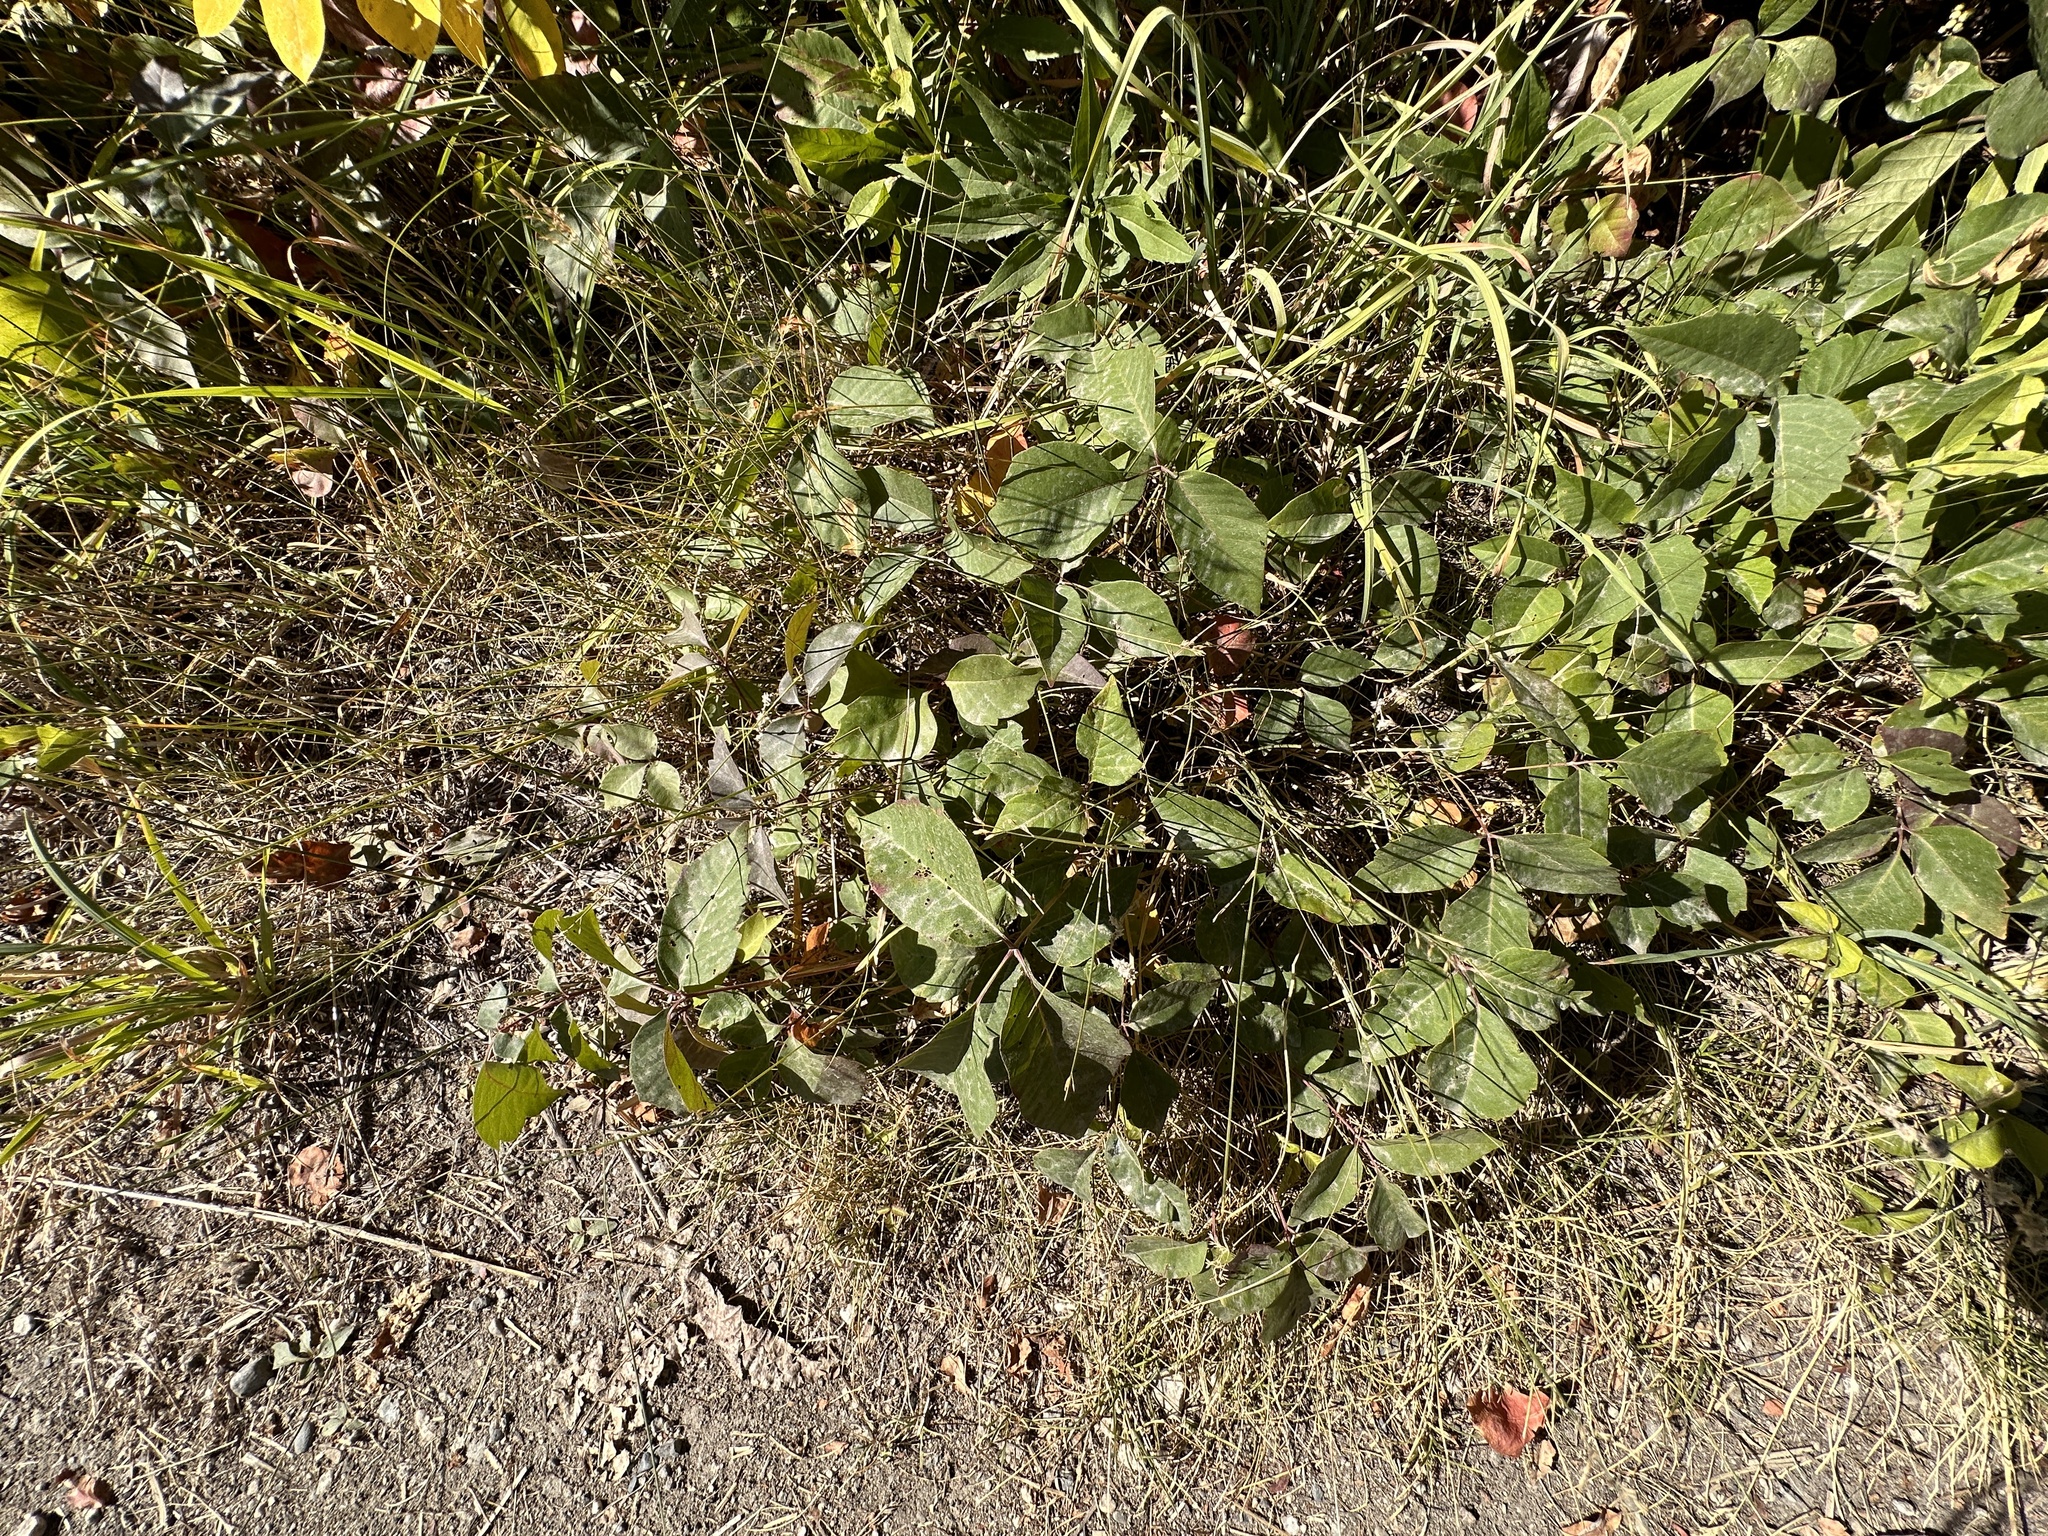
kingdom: Plantae
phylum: Tracheophyta
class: Magnoliopsida
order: Sapindales
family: Anacardiaceae
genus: Toxicodendron
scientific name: Toxicodendron rydbergii
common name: Rydberg's poison-ivy
